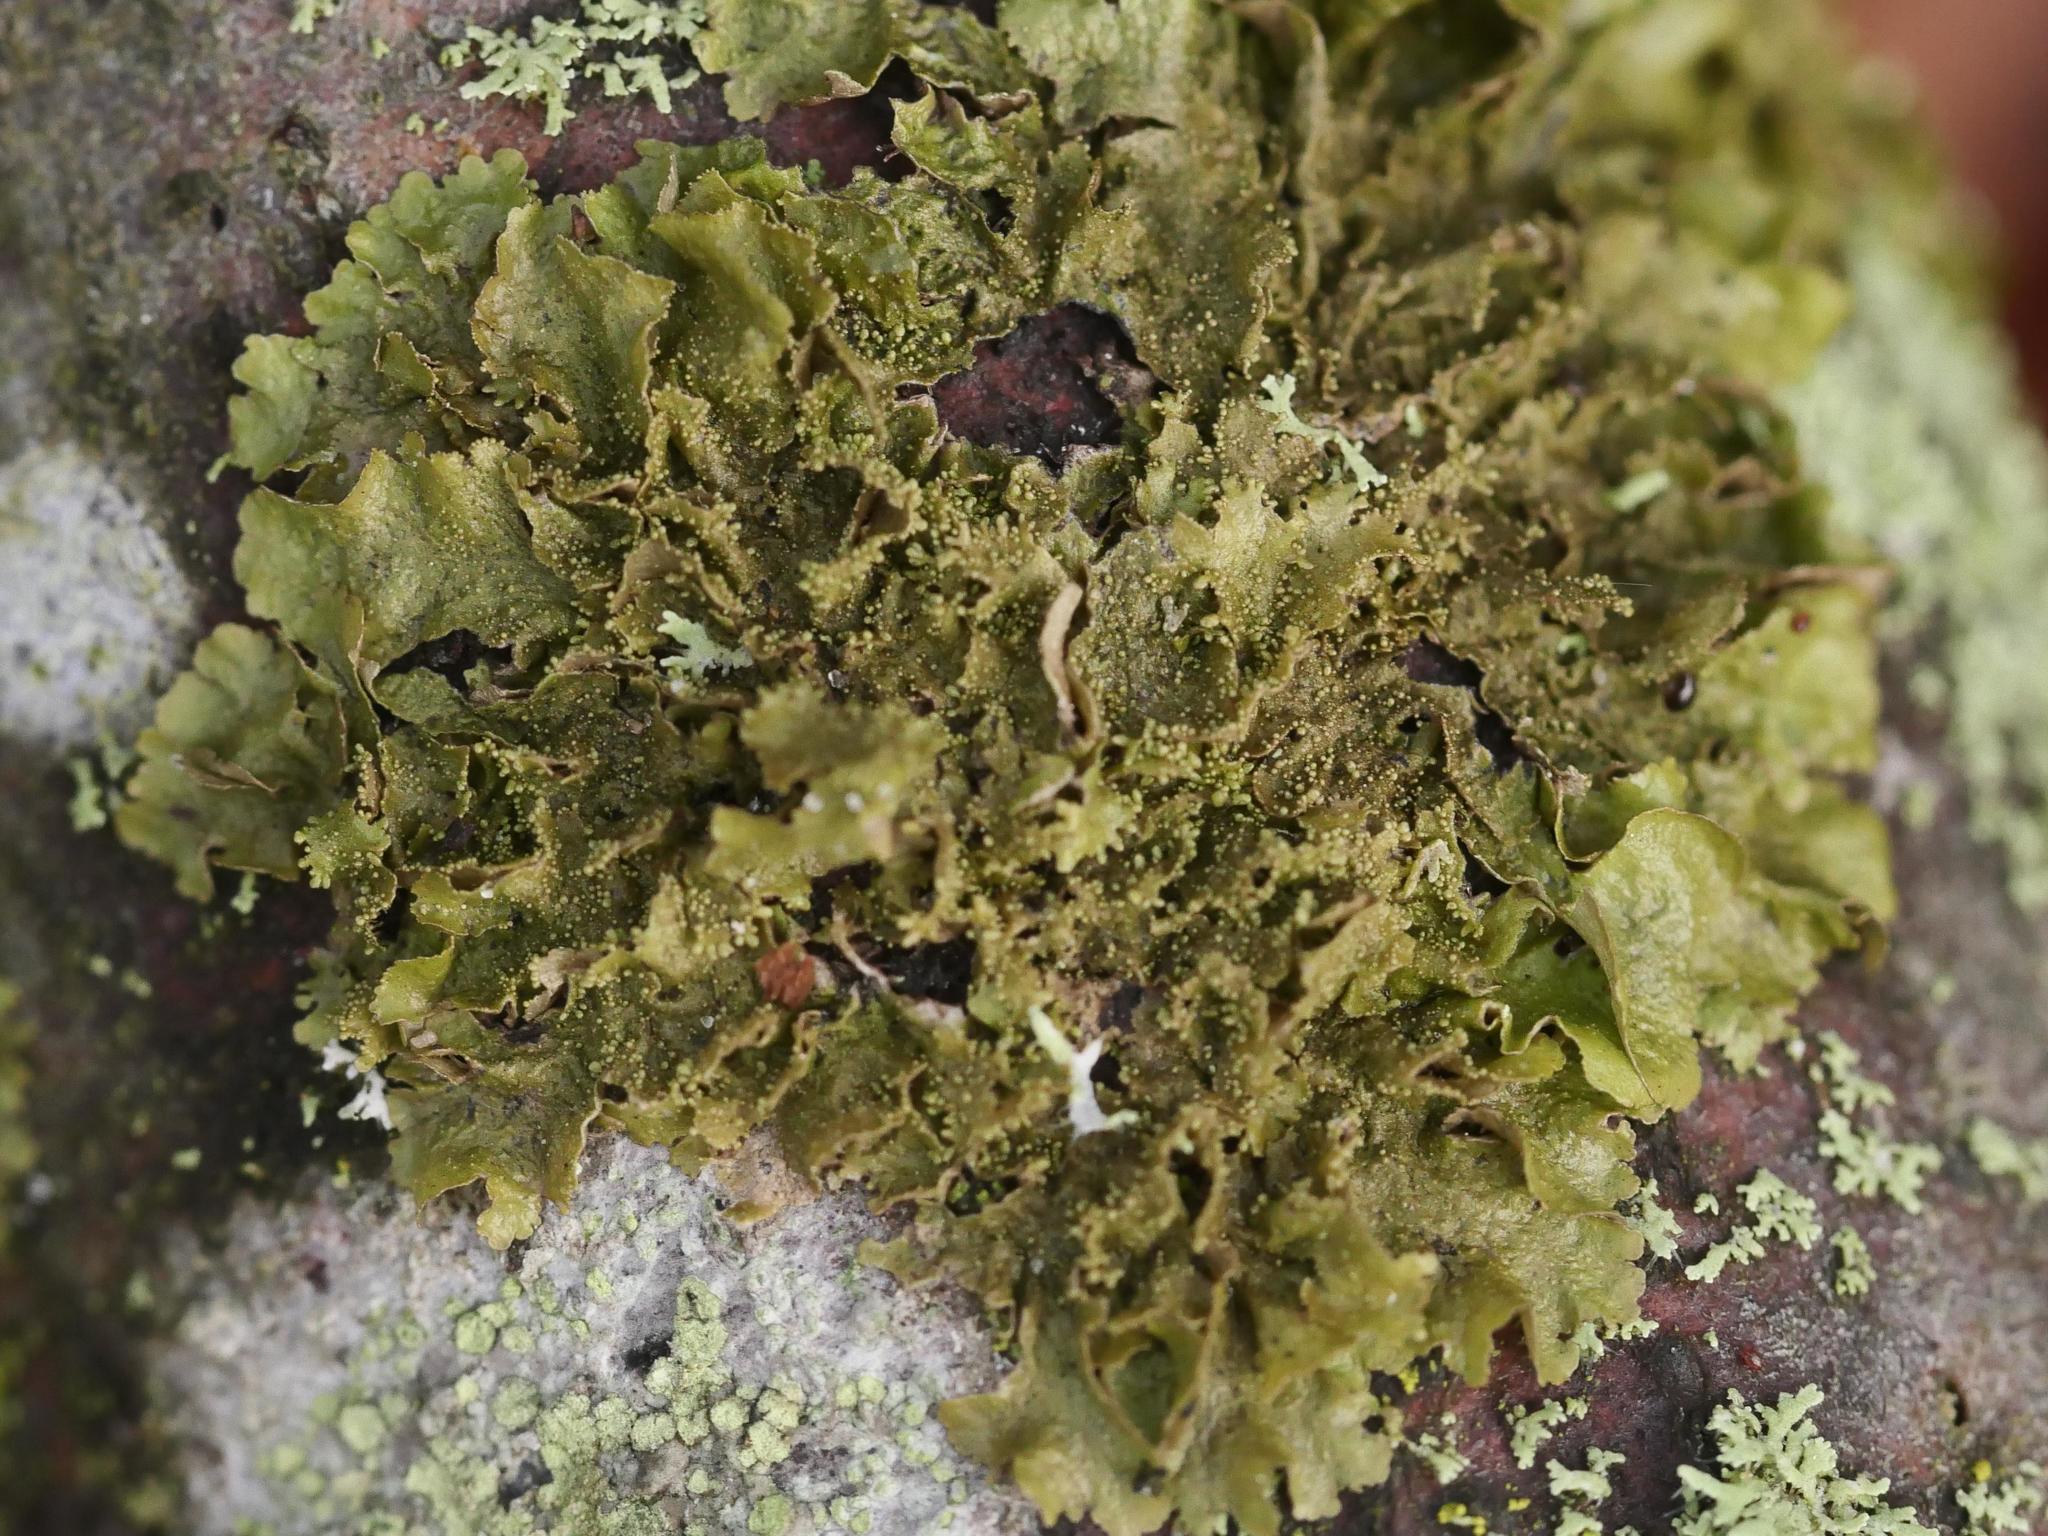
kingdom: Fungi
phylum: Ascomycota
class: Lecanoromycetes
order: Lecanorales
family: Parmeliaceae
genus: Melanohalea
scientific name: Melanohalea exasperatula
